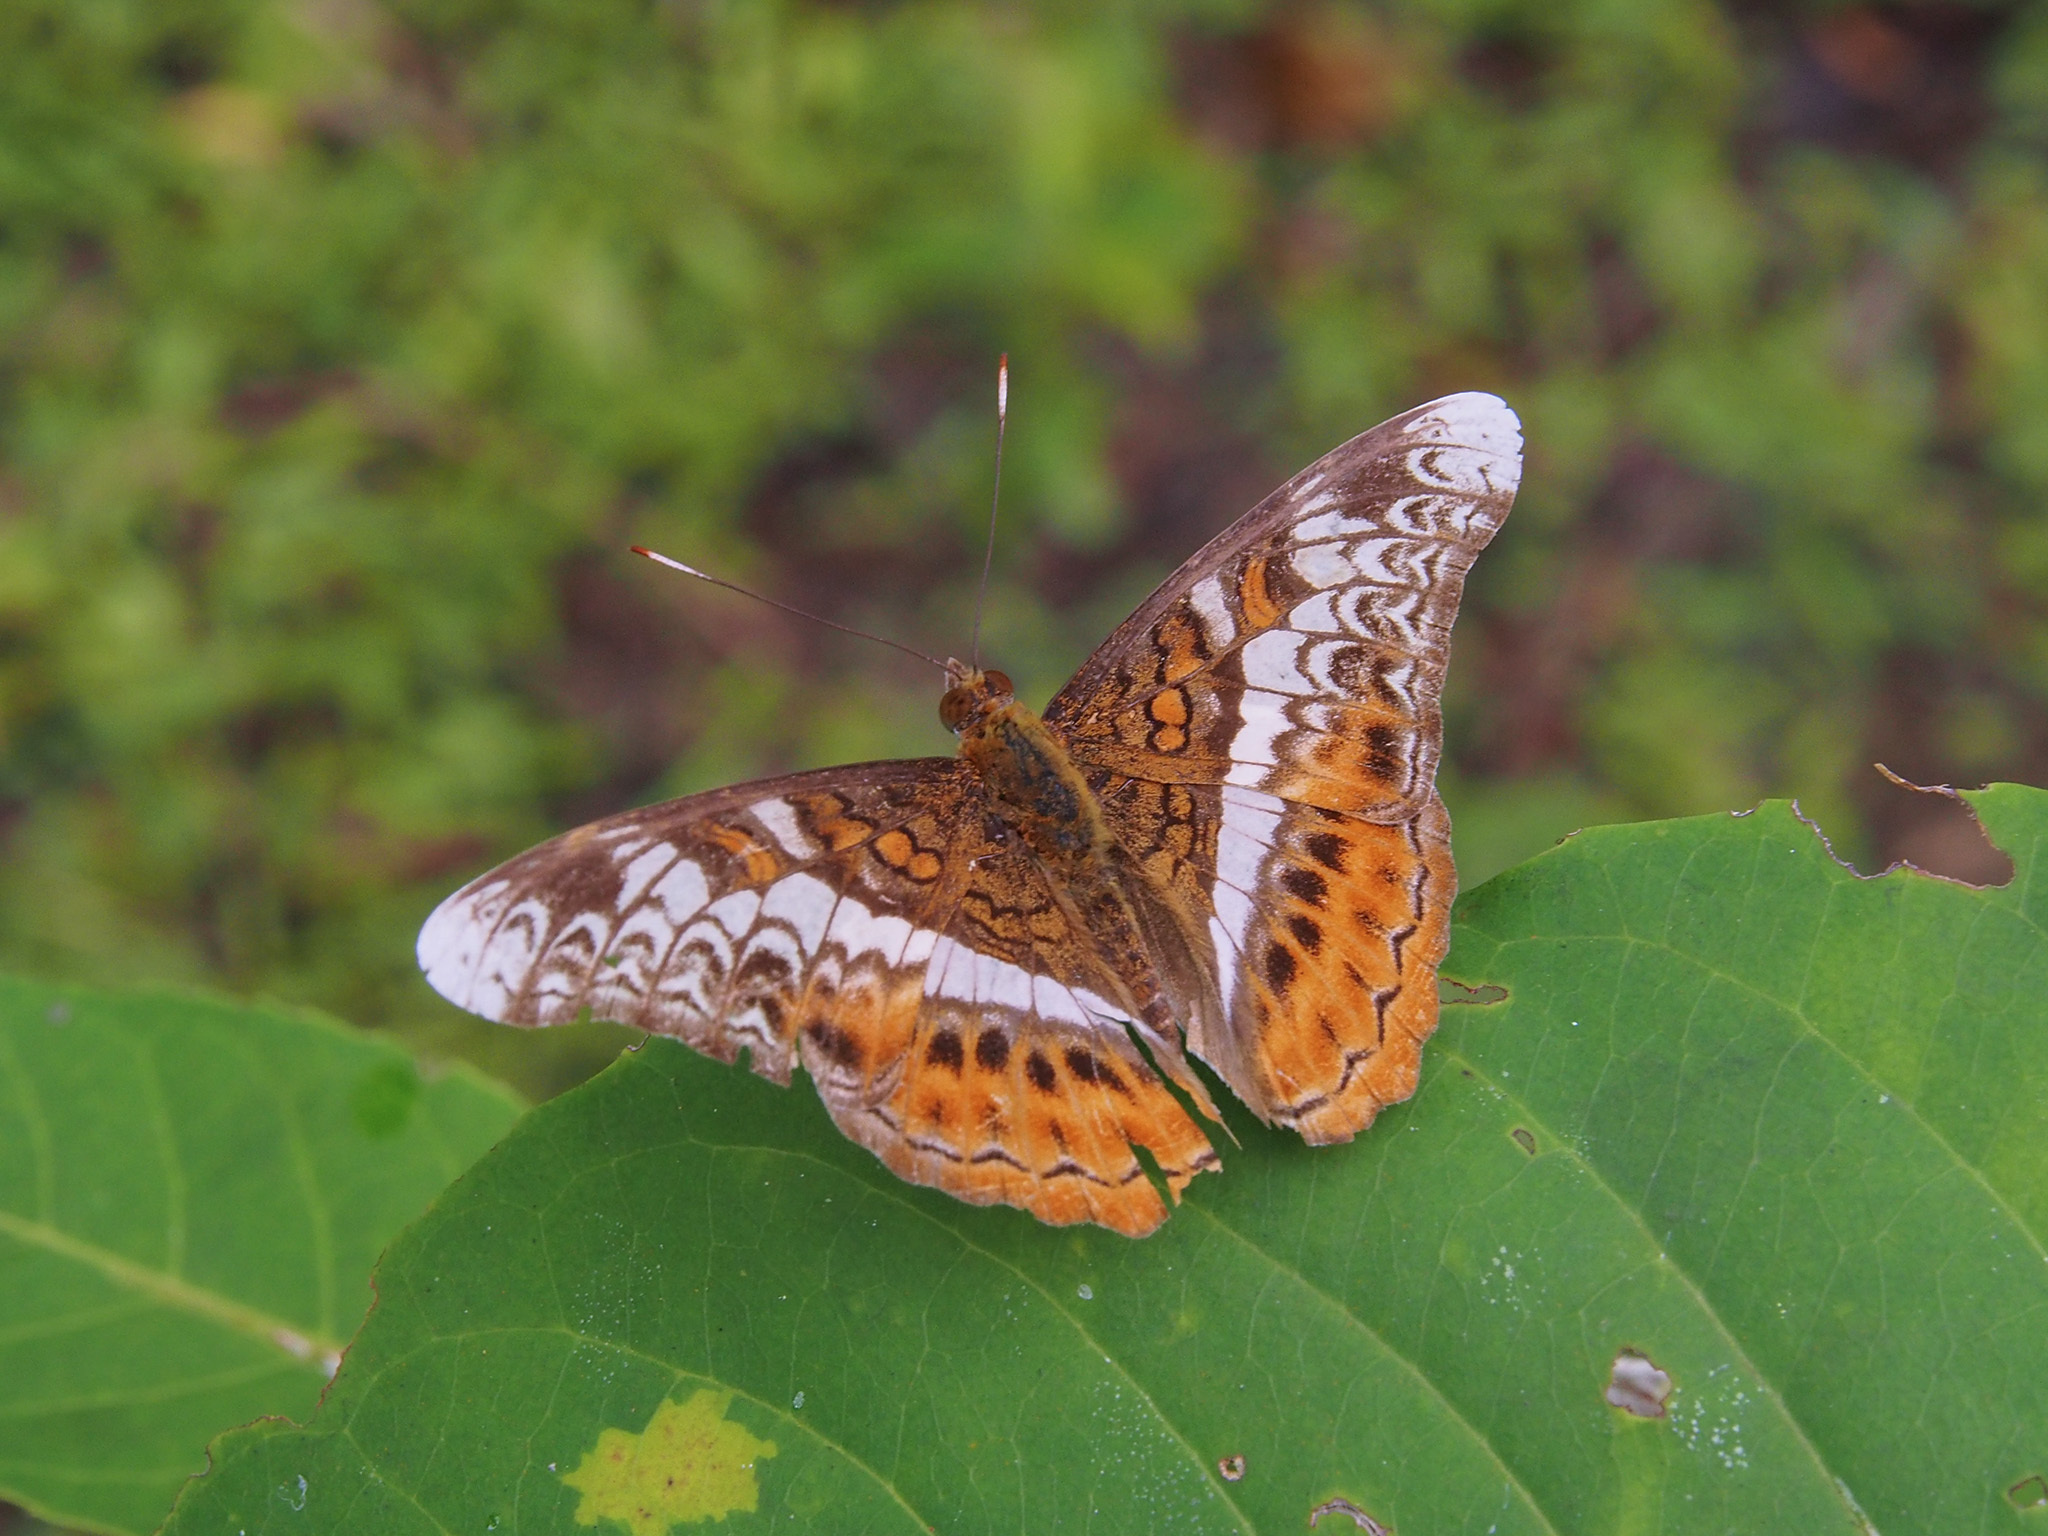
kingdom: Animalia
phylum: Arthropoda
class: Insecta
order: Lepidoptera
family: Nymphalidae
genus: Lebadea
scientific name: Lebadea martha
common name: Knight
